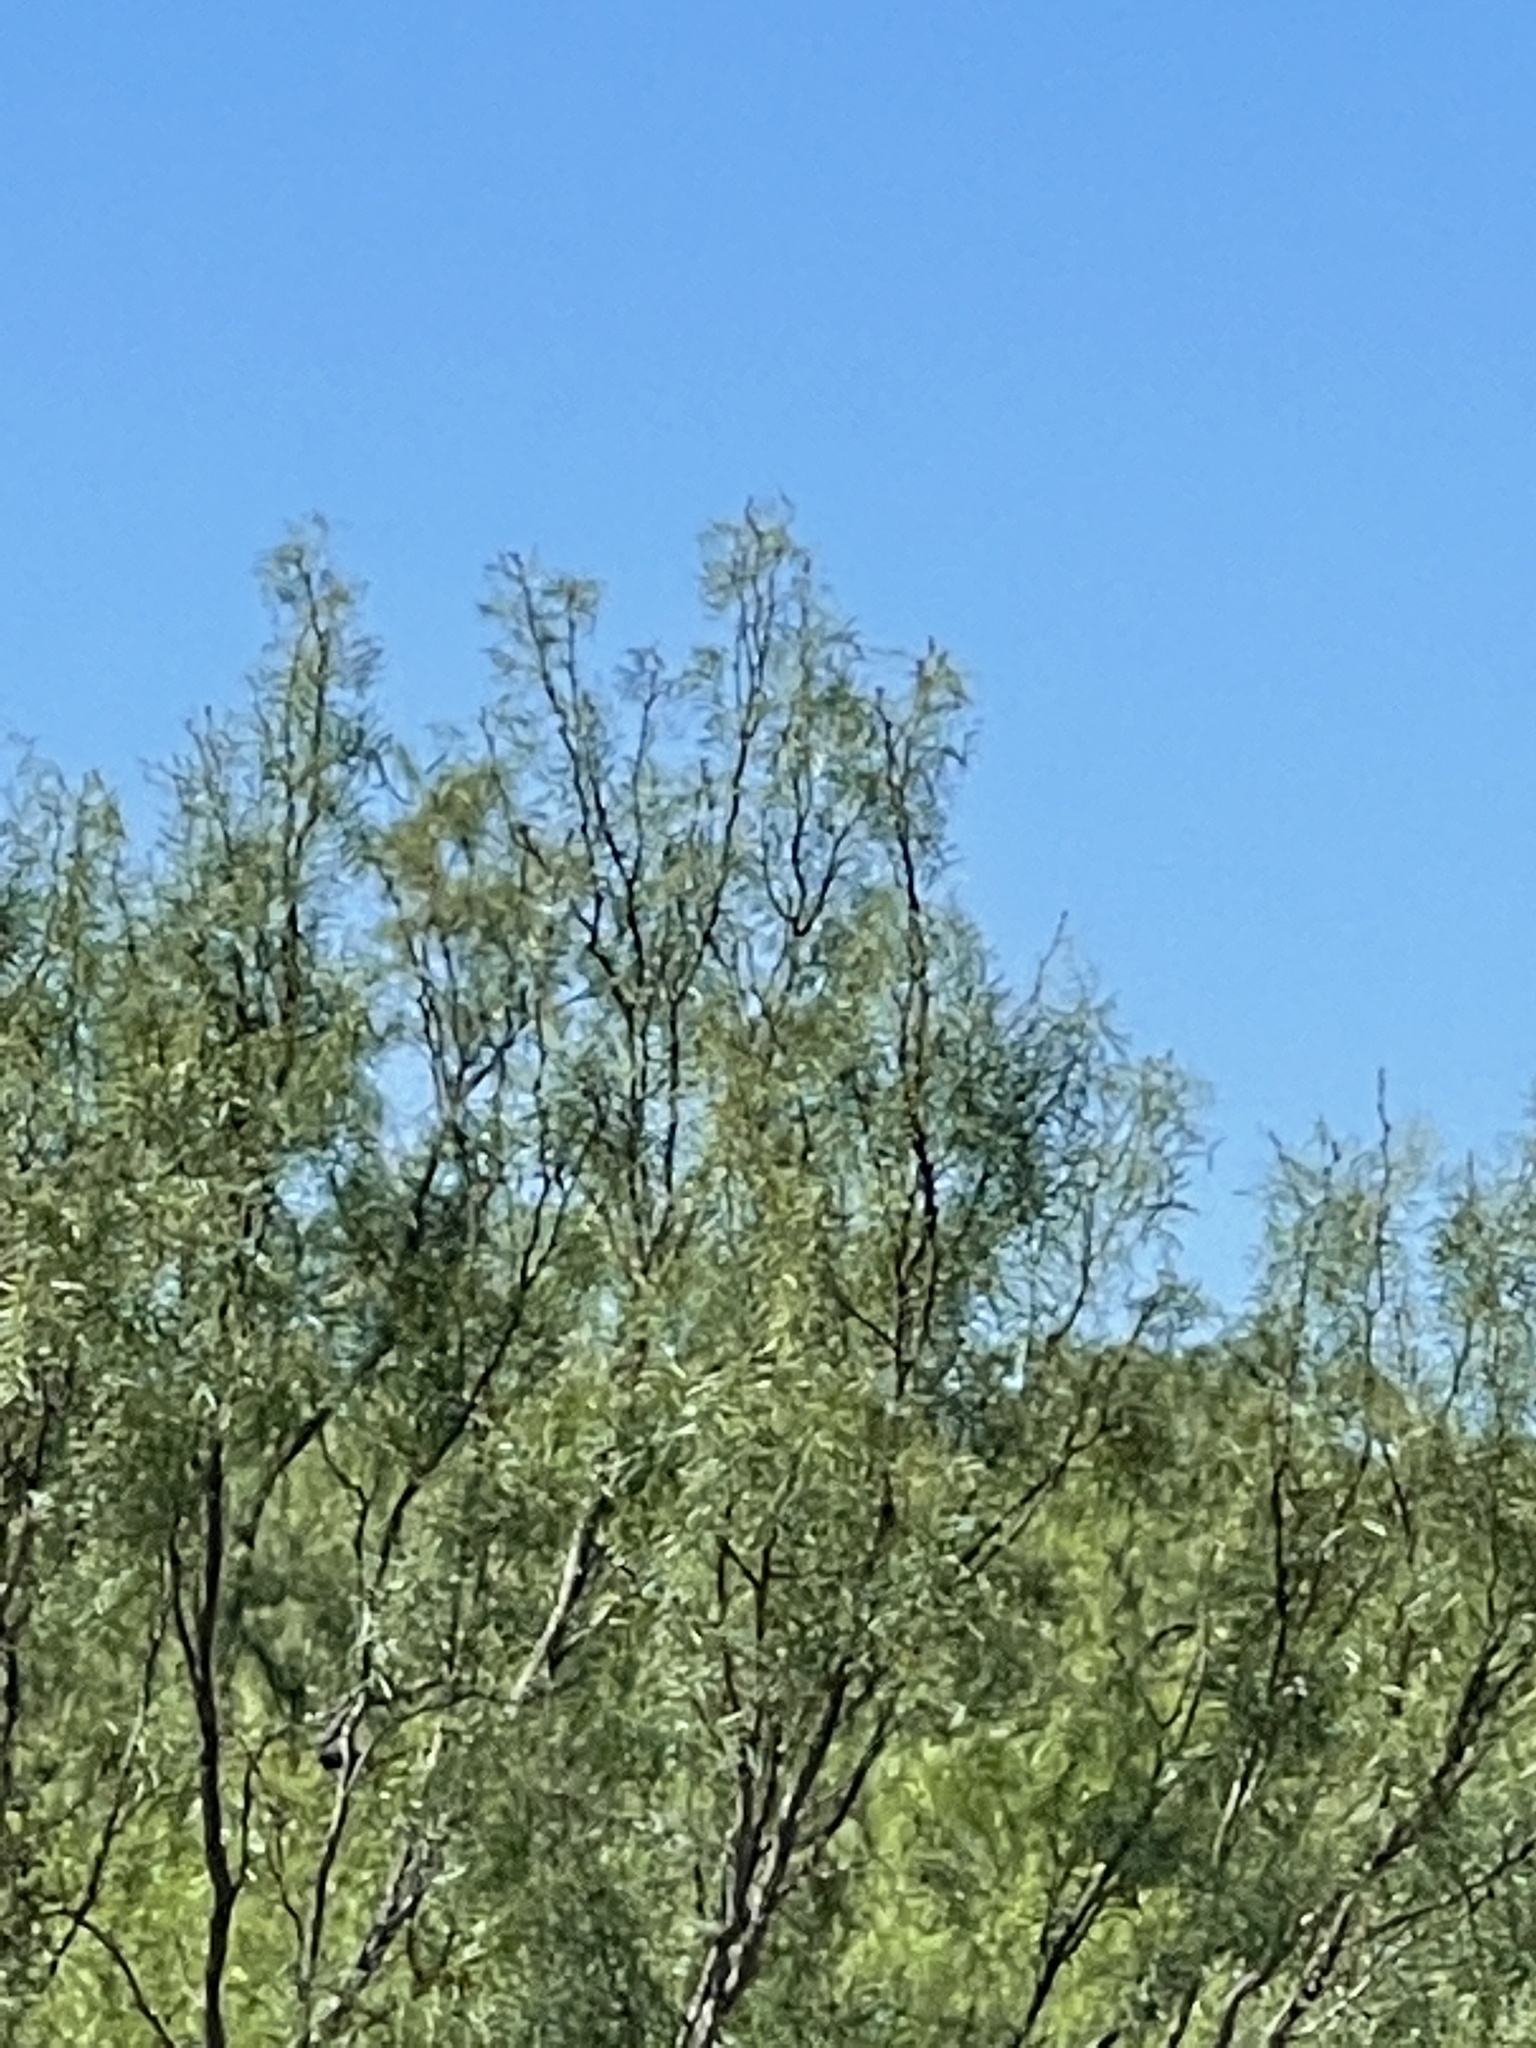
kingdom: Plantae
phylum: Tracheophyta
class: Magnoliopsida
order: Fabales
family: Fabaceae
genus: Prosopis
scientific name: Prosopis glandulosa
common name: Honey mesquite
